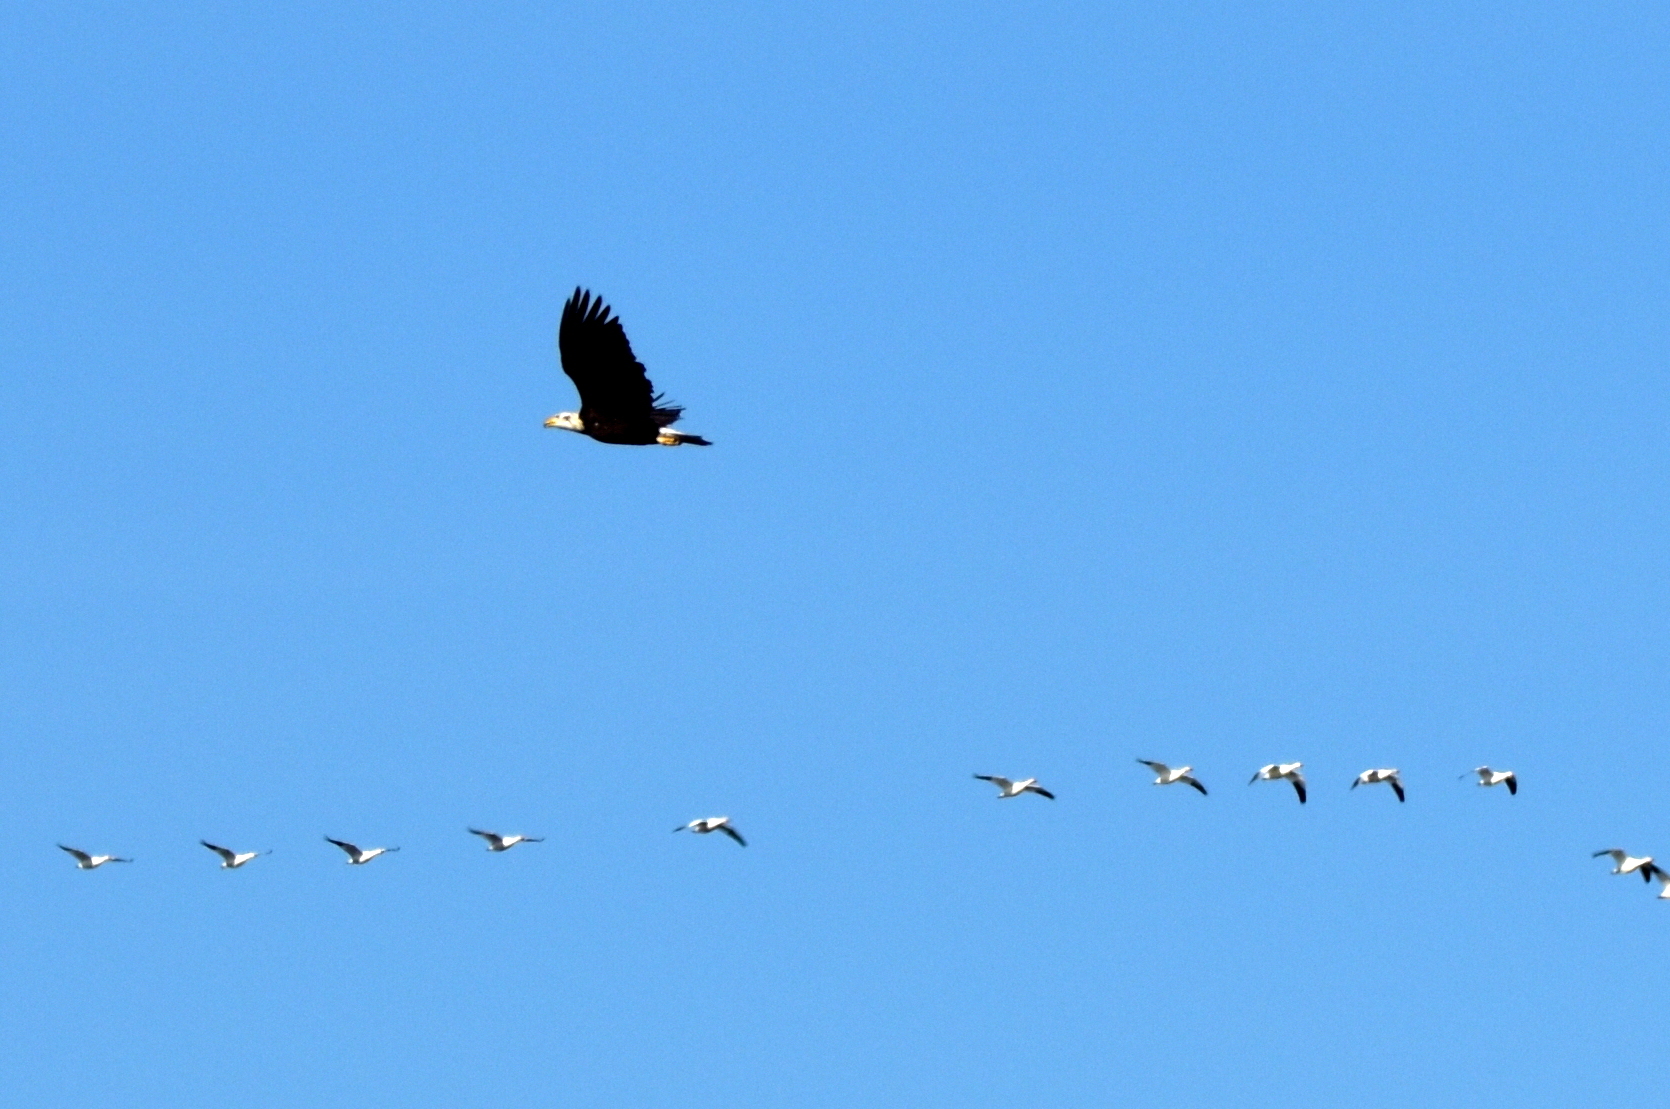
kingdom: Animalia
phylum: Chordata
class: Aves
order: Accipitriformes
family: Accipitridae
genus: Haliaeetus
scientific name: Haliaeetus leucocephalus
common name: Bald eagle
